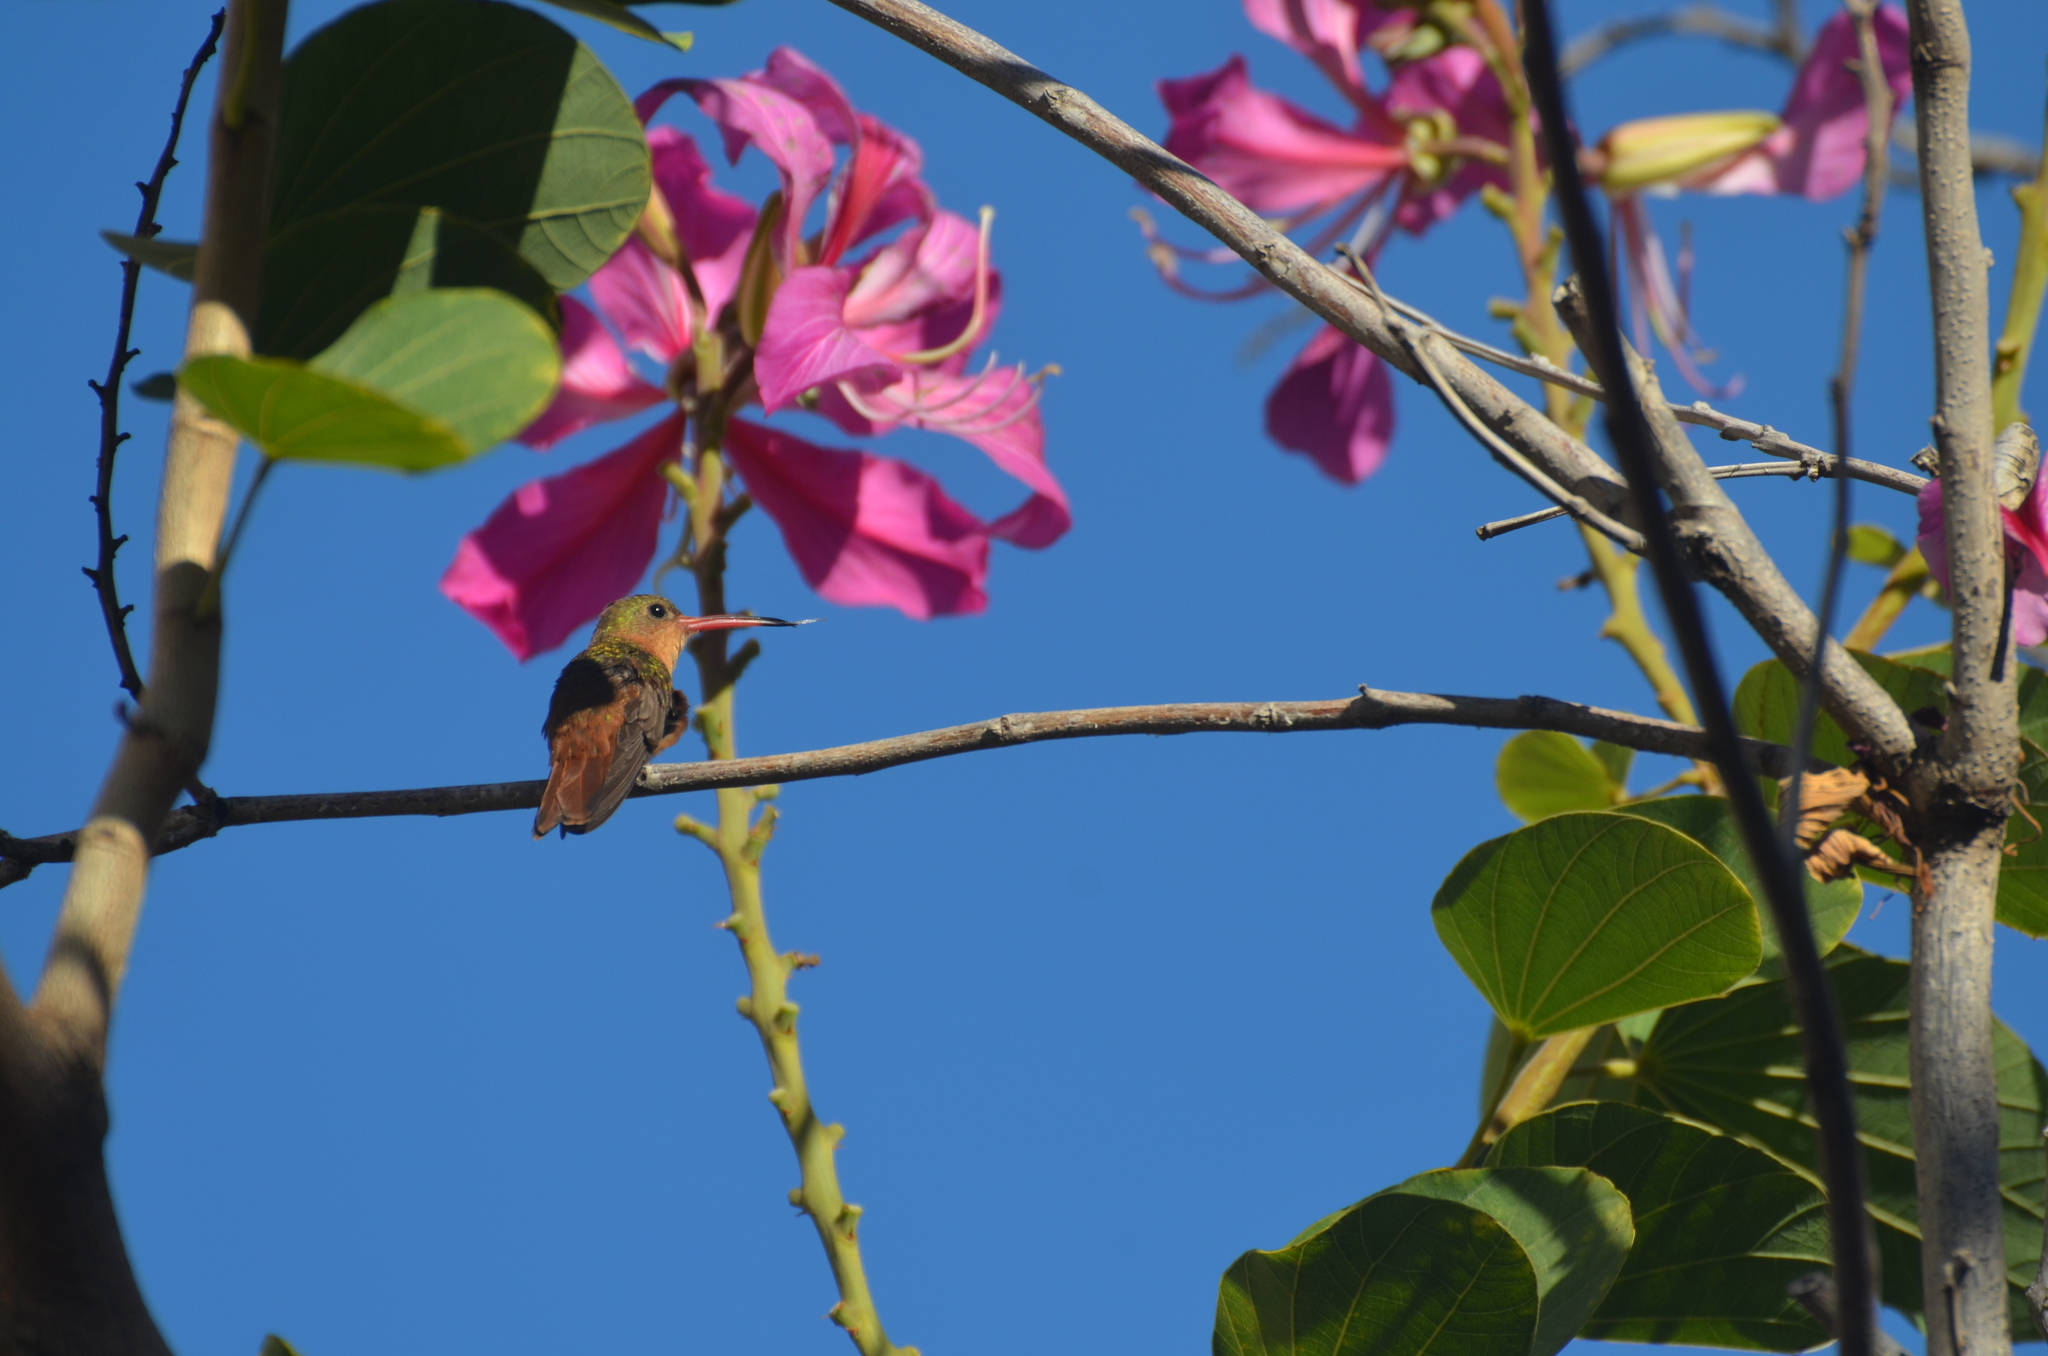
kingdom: Animalia
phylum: Chordata
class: Aves
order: Apodiformes
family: Trochilidae
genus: Amazilia
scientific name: Amazilia rutila
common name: Cinnamon hummingbird
